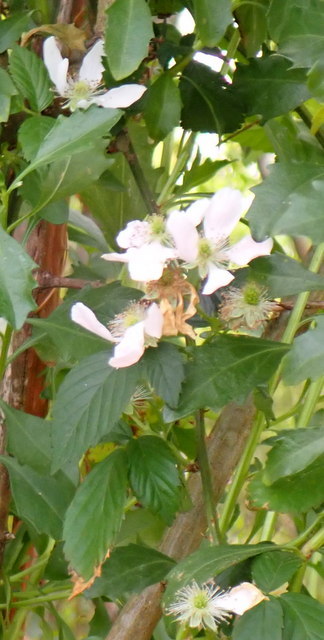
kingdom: Plantae
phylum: Tracheophyta
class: Magnoliopsida
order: Rosales
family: Rosaceae
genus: Rubus
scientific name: Rubus pensilvanicus
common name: Pennsylvania blackberry
